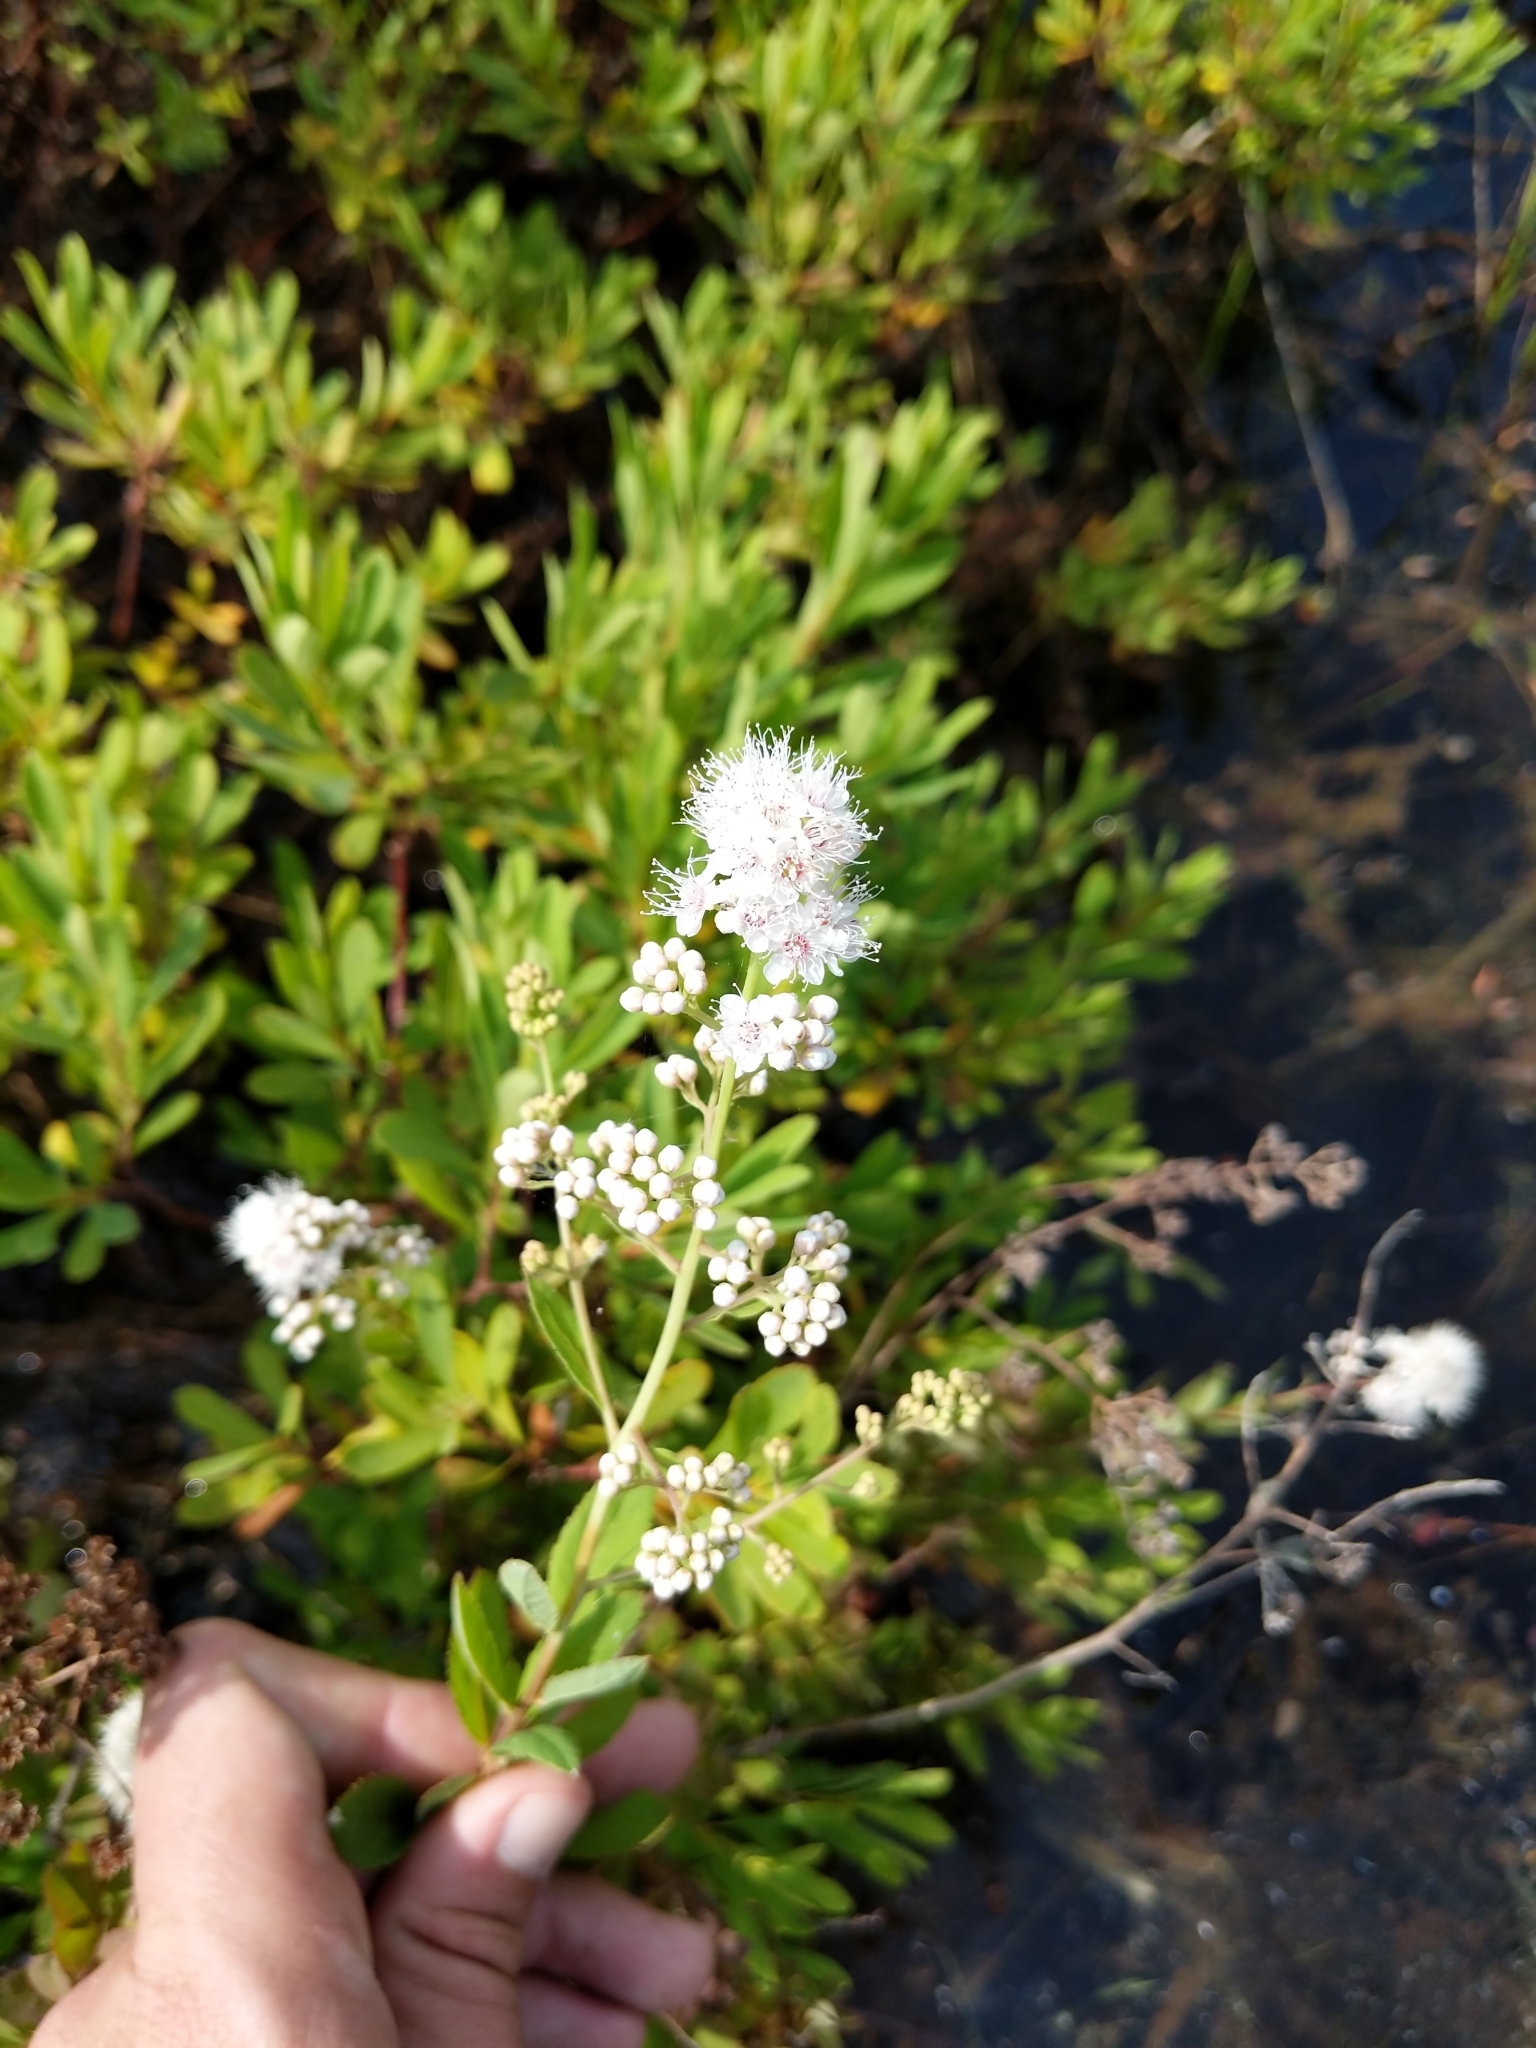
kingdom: Plantae
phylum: Tracheophyta
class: Magnoliopsida
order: Rosales
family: Rosaceae
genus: Spiraea
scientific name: Spiraea alba
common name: Pale bridewort
